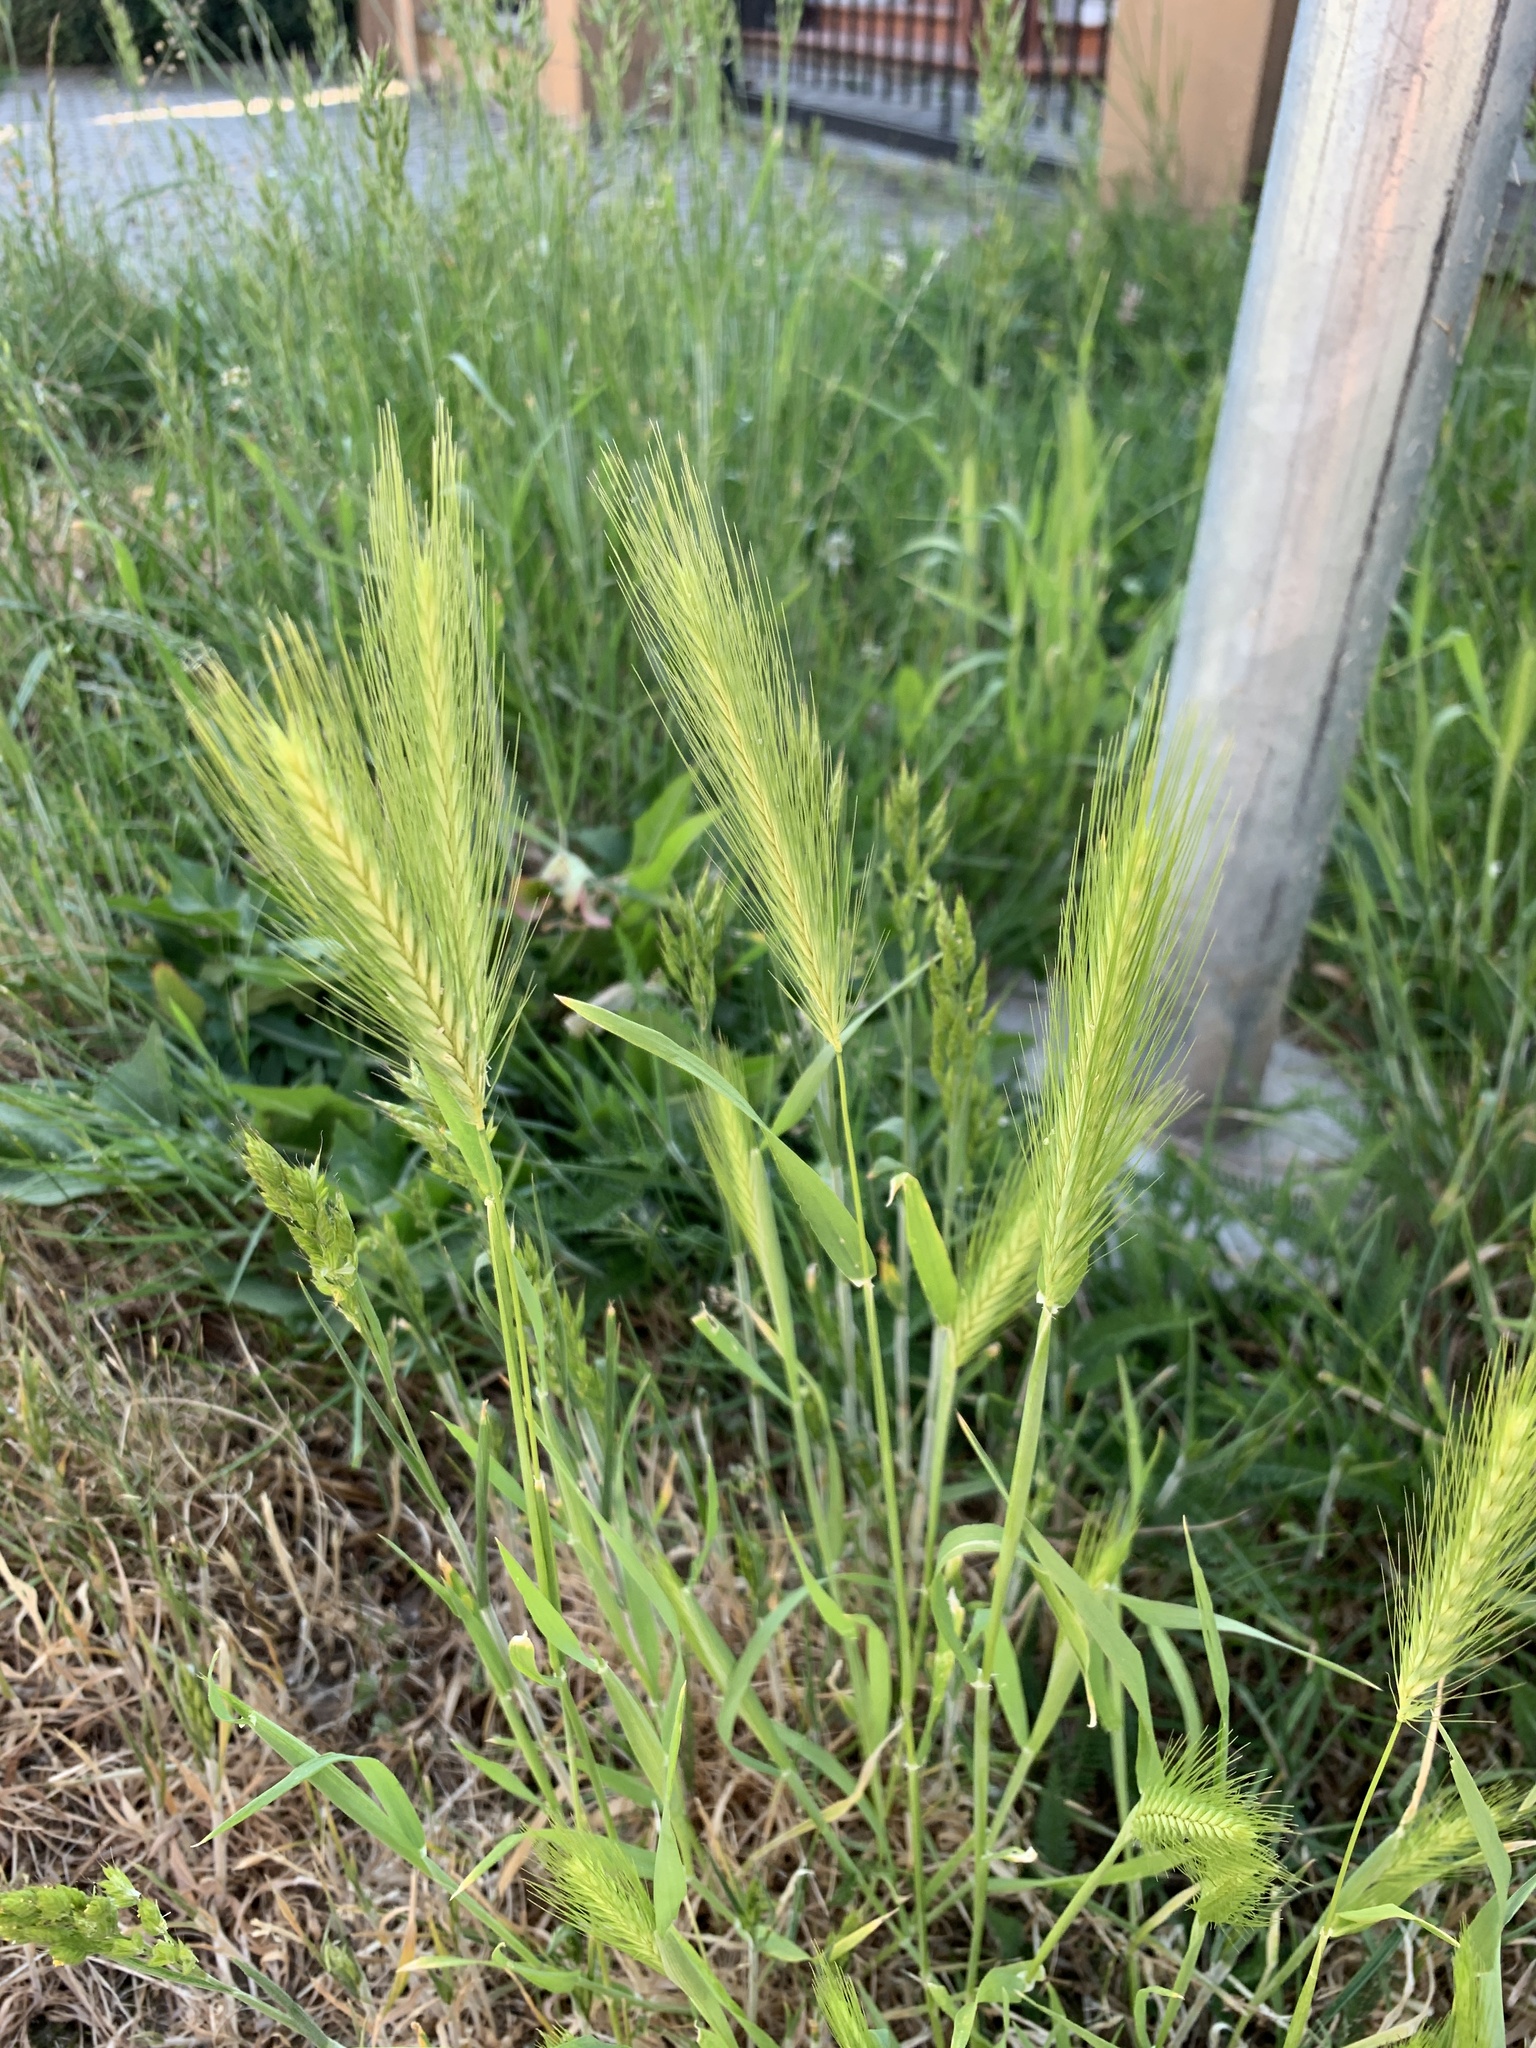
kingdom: Plantae
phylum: Tracheophyta
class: Liliopsida
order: Poales
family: Poaceae
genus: Hordeum
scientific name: Hordeum murinum
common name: Wall barley
